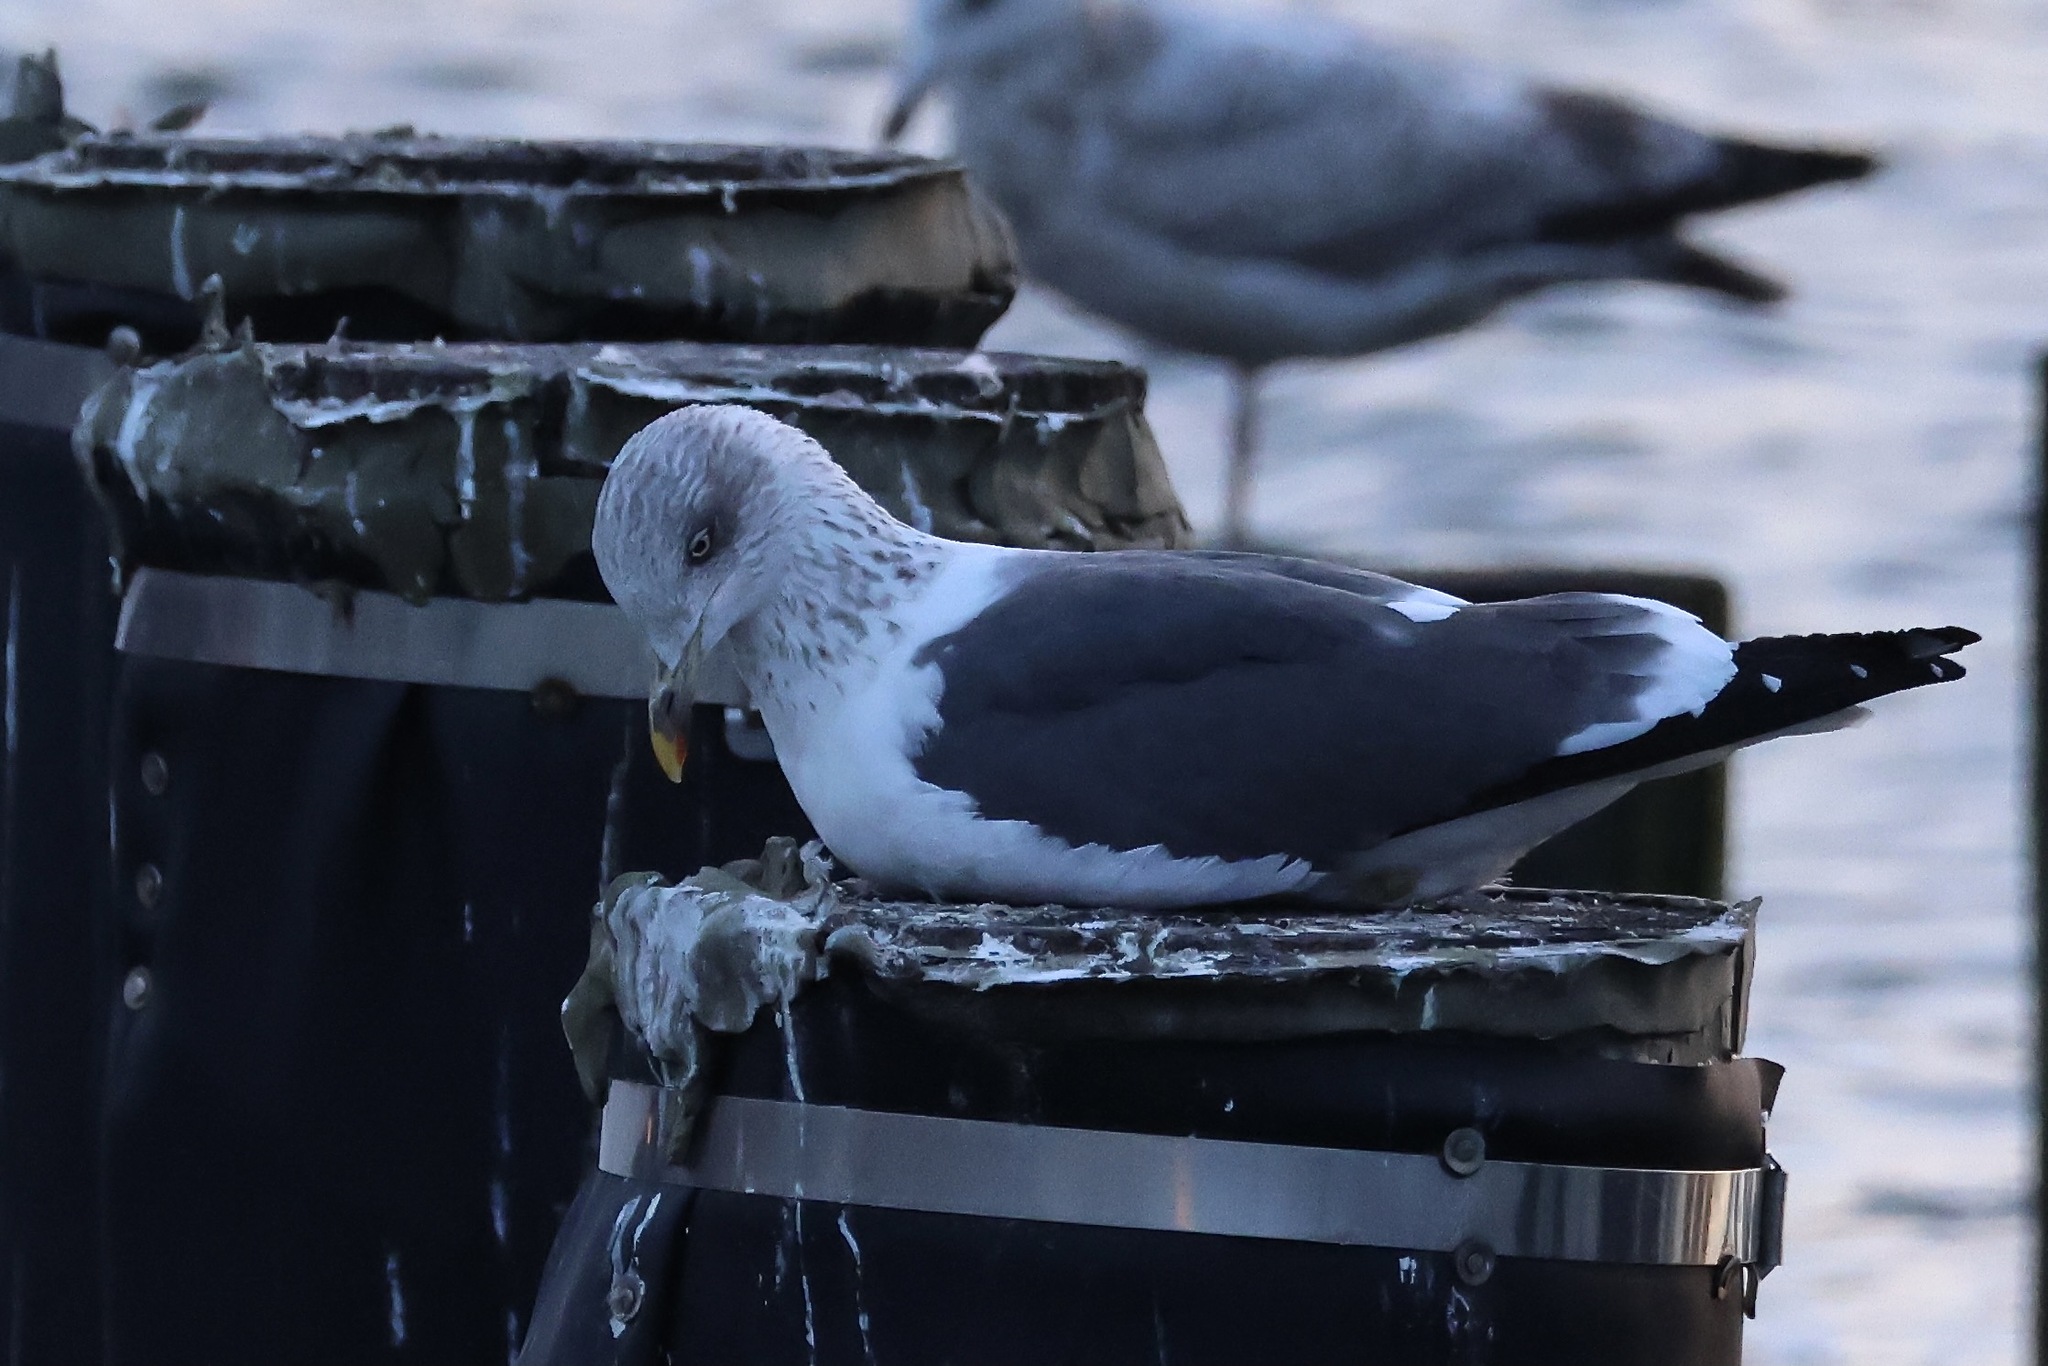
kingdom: Animalia
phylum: Chordata
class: Aves
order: Charadriiformes
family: Laridae
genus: Larus
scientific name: Larus fuscus
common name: Lesser black-backed gull
